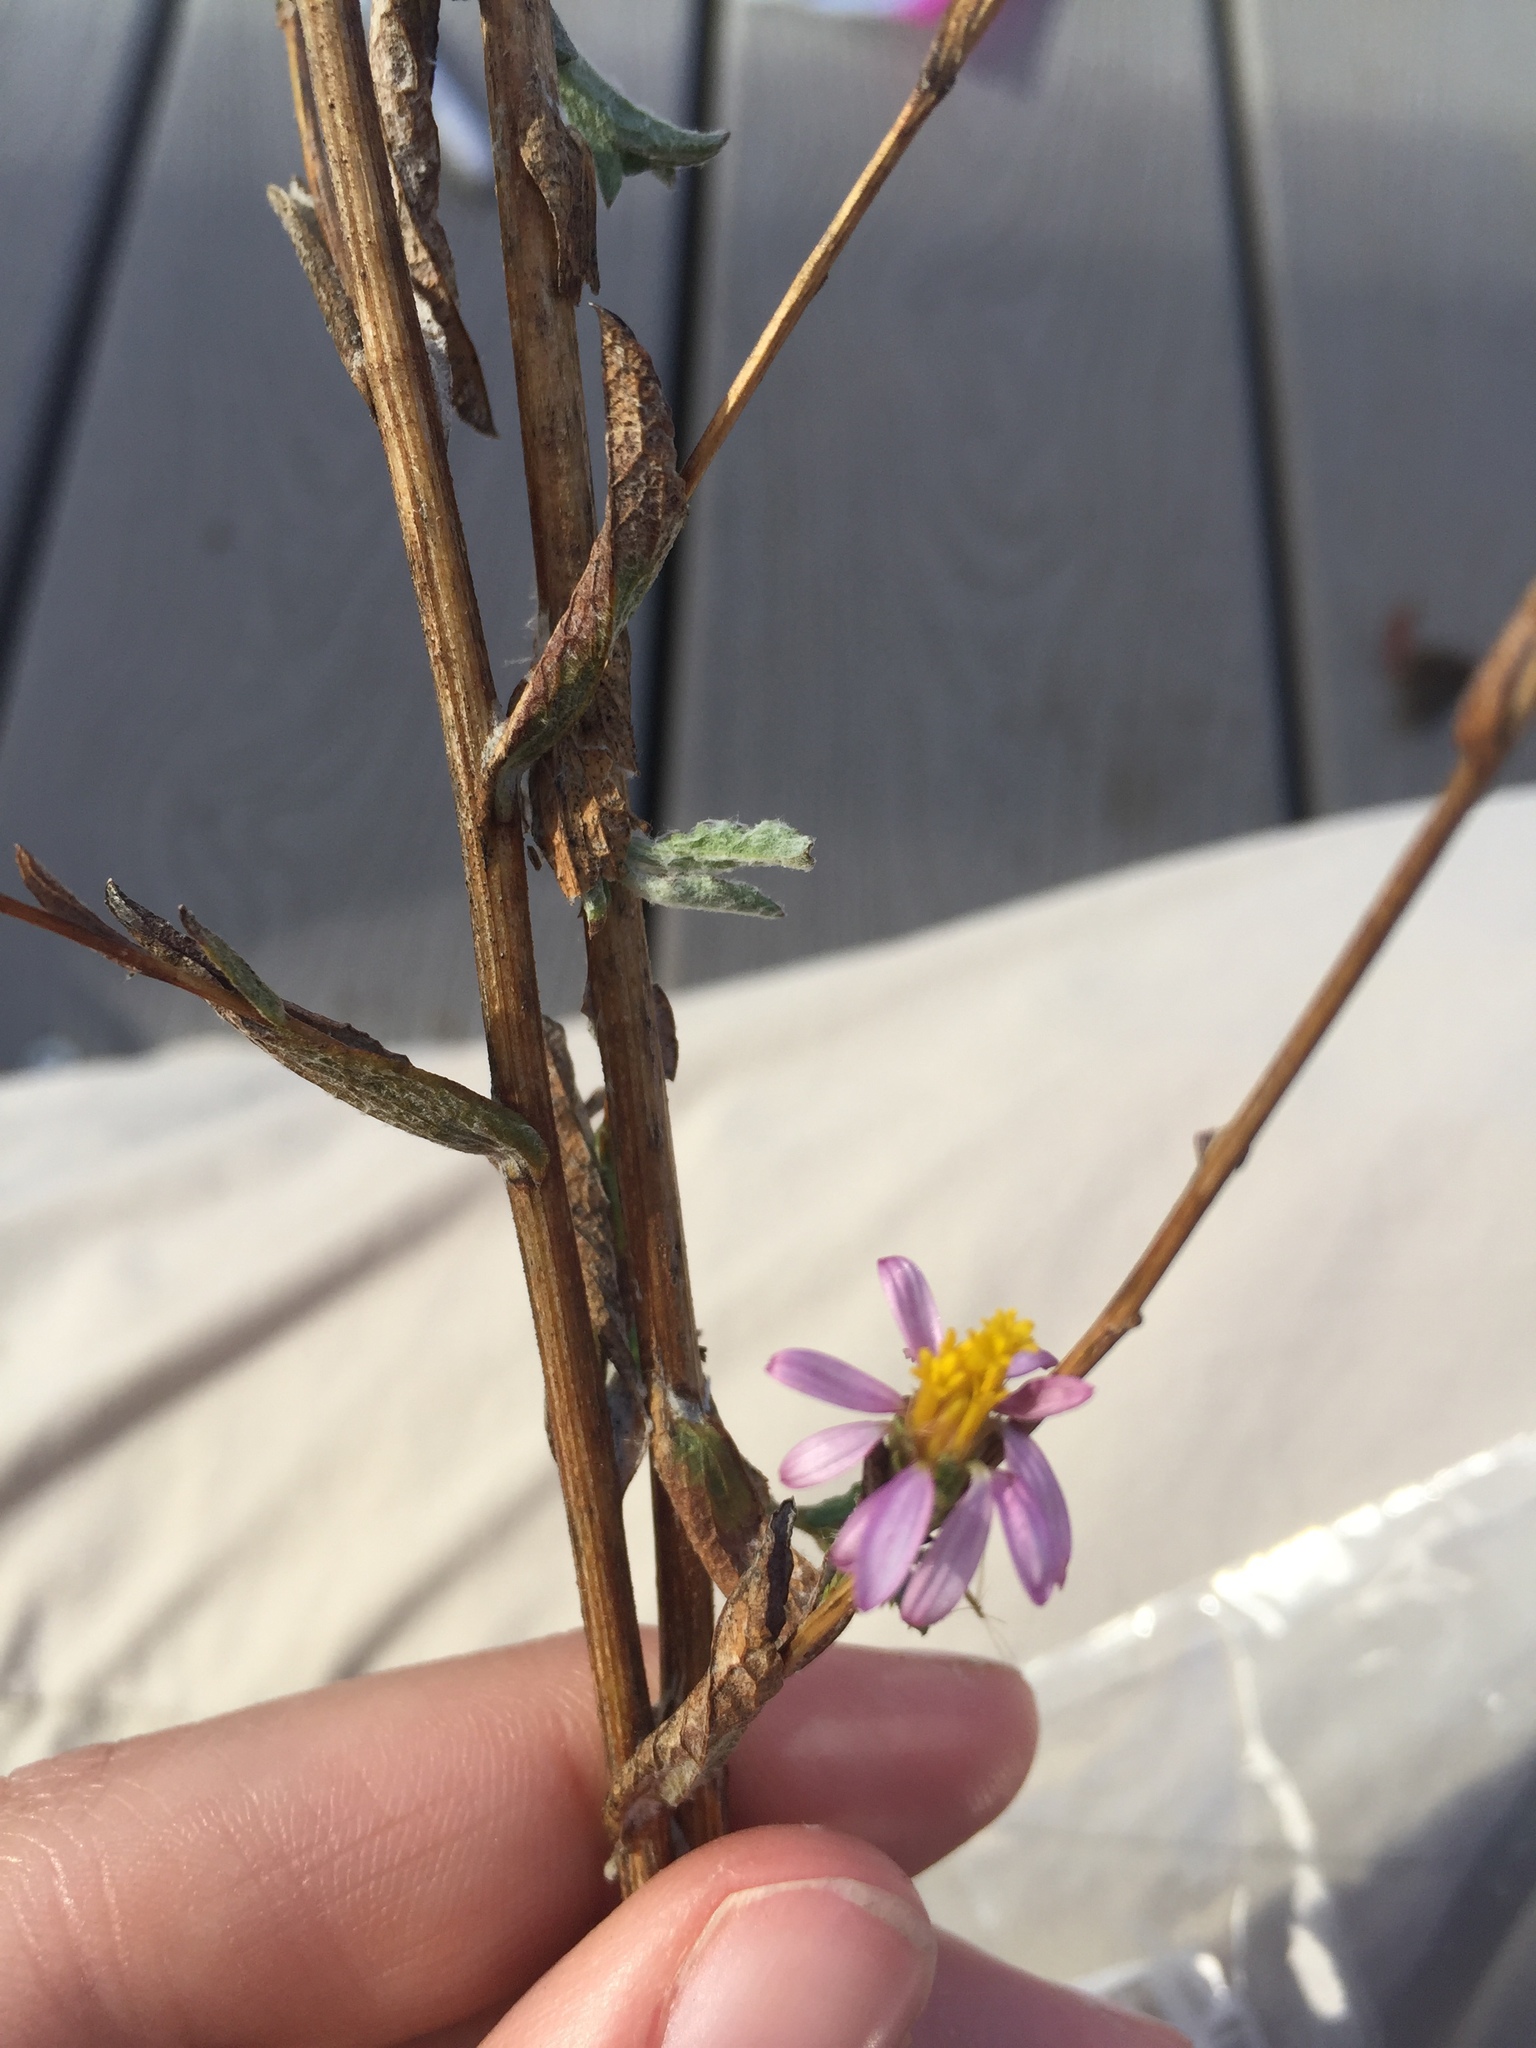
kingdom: Plantae
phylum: Tracheophyta
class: Magnoliopsida
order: Asterales
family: Asteraceae
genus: Corethrogyne
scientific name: Corethrogyne filaginifolia
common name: Sand-aster
